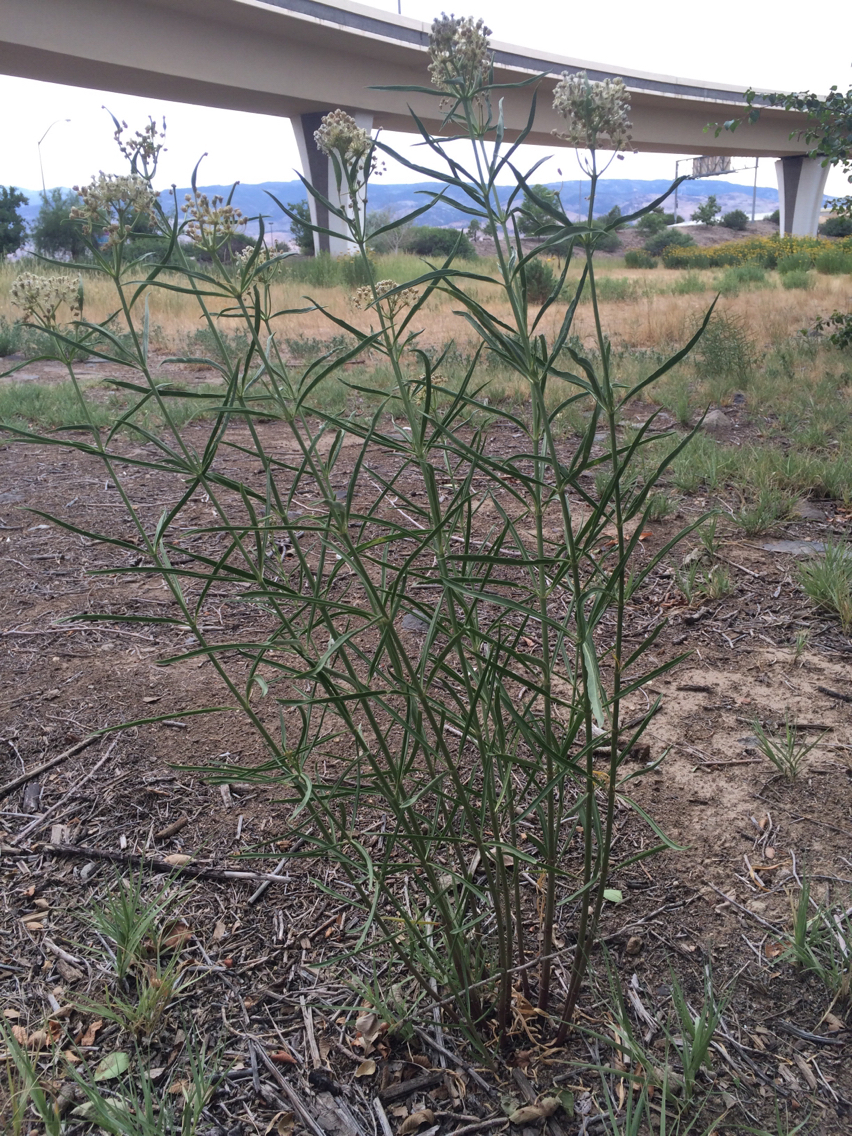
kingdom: Plantae
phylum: Tracheophyta
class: Magnoliopsida
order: Gentianales
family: Apocynaceae
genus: Asclepias
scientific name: Asclepias fascicularis
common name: Mexican milkweed
